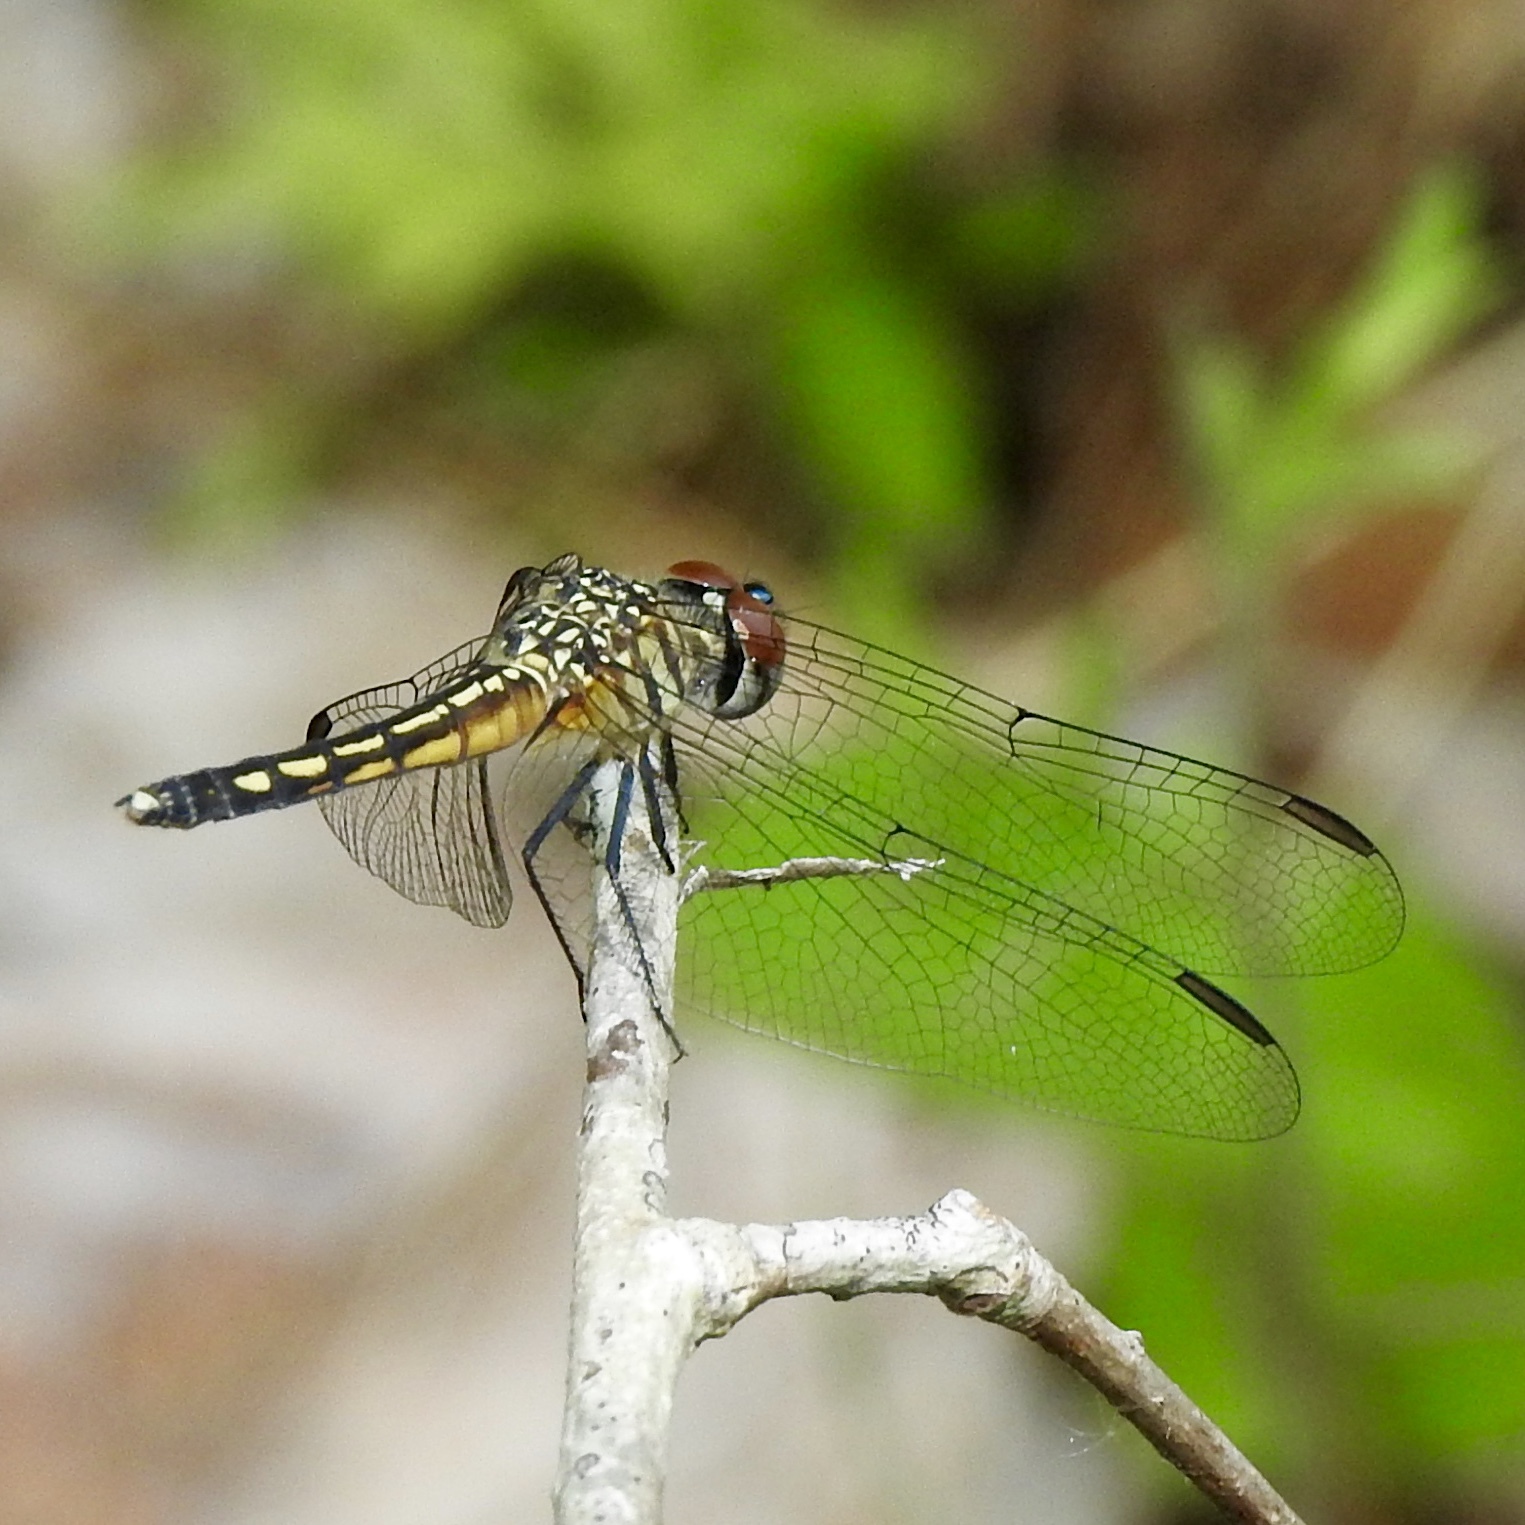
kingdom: Animalia
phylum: Arthropoda
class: Insecta
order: Odonata
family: Libellulidae
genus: Pachydiplax
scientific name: Pachydiplax longipennis
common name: Blue dasher
